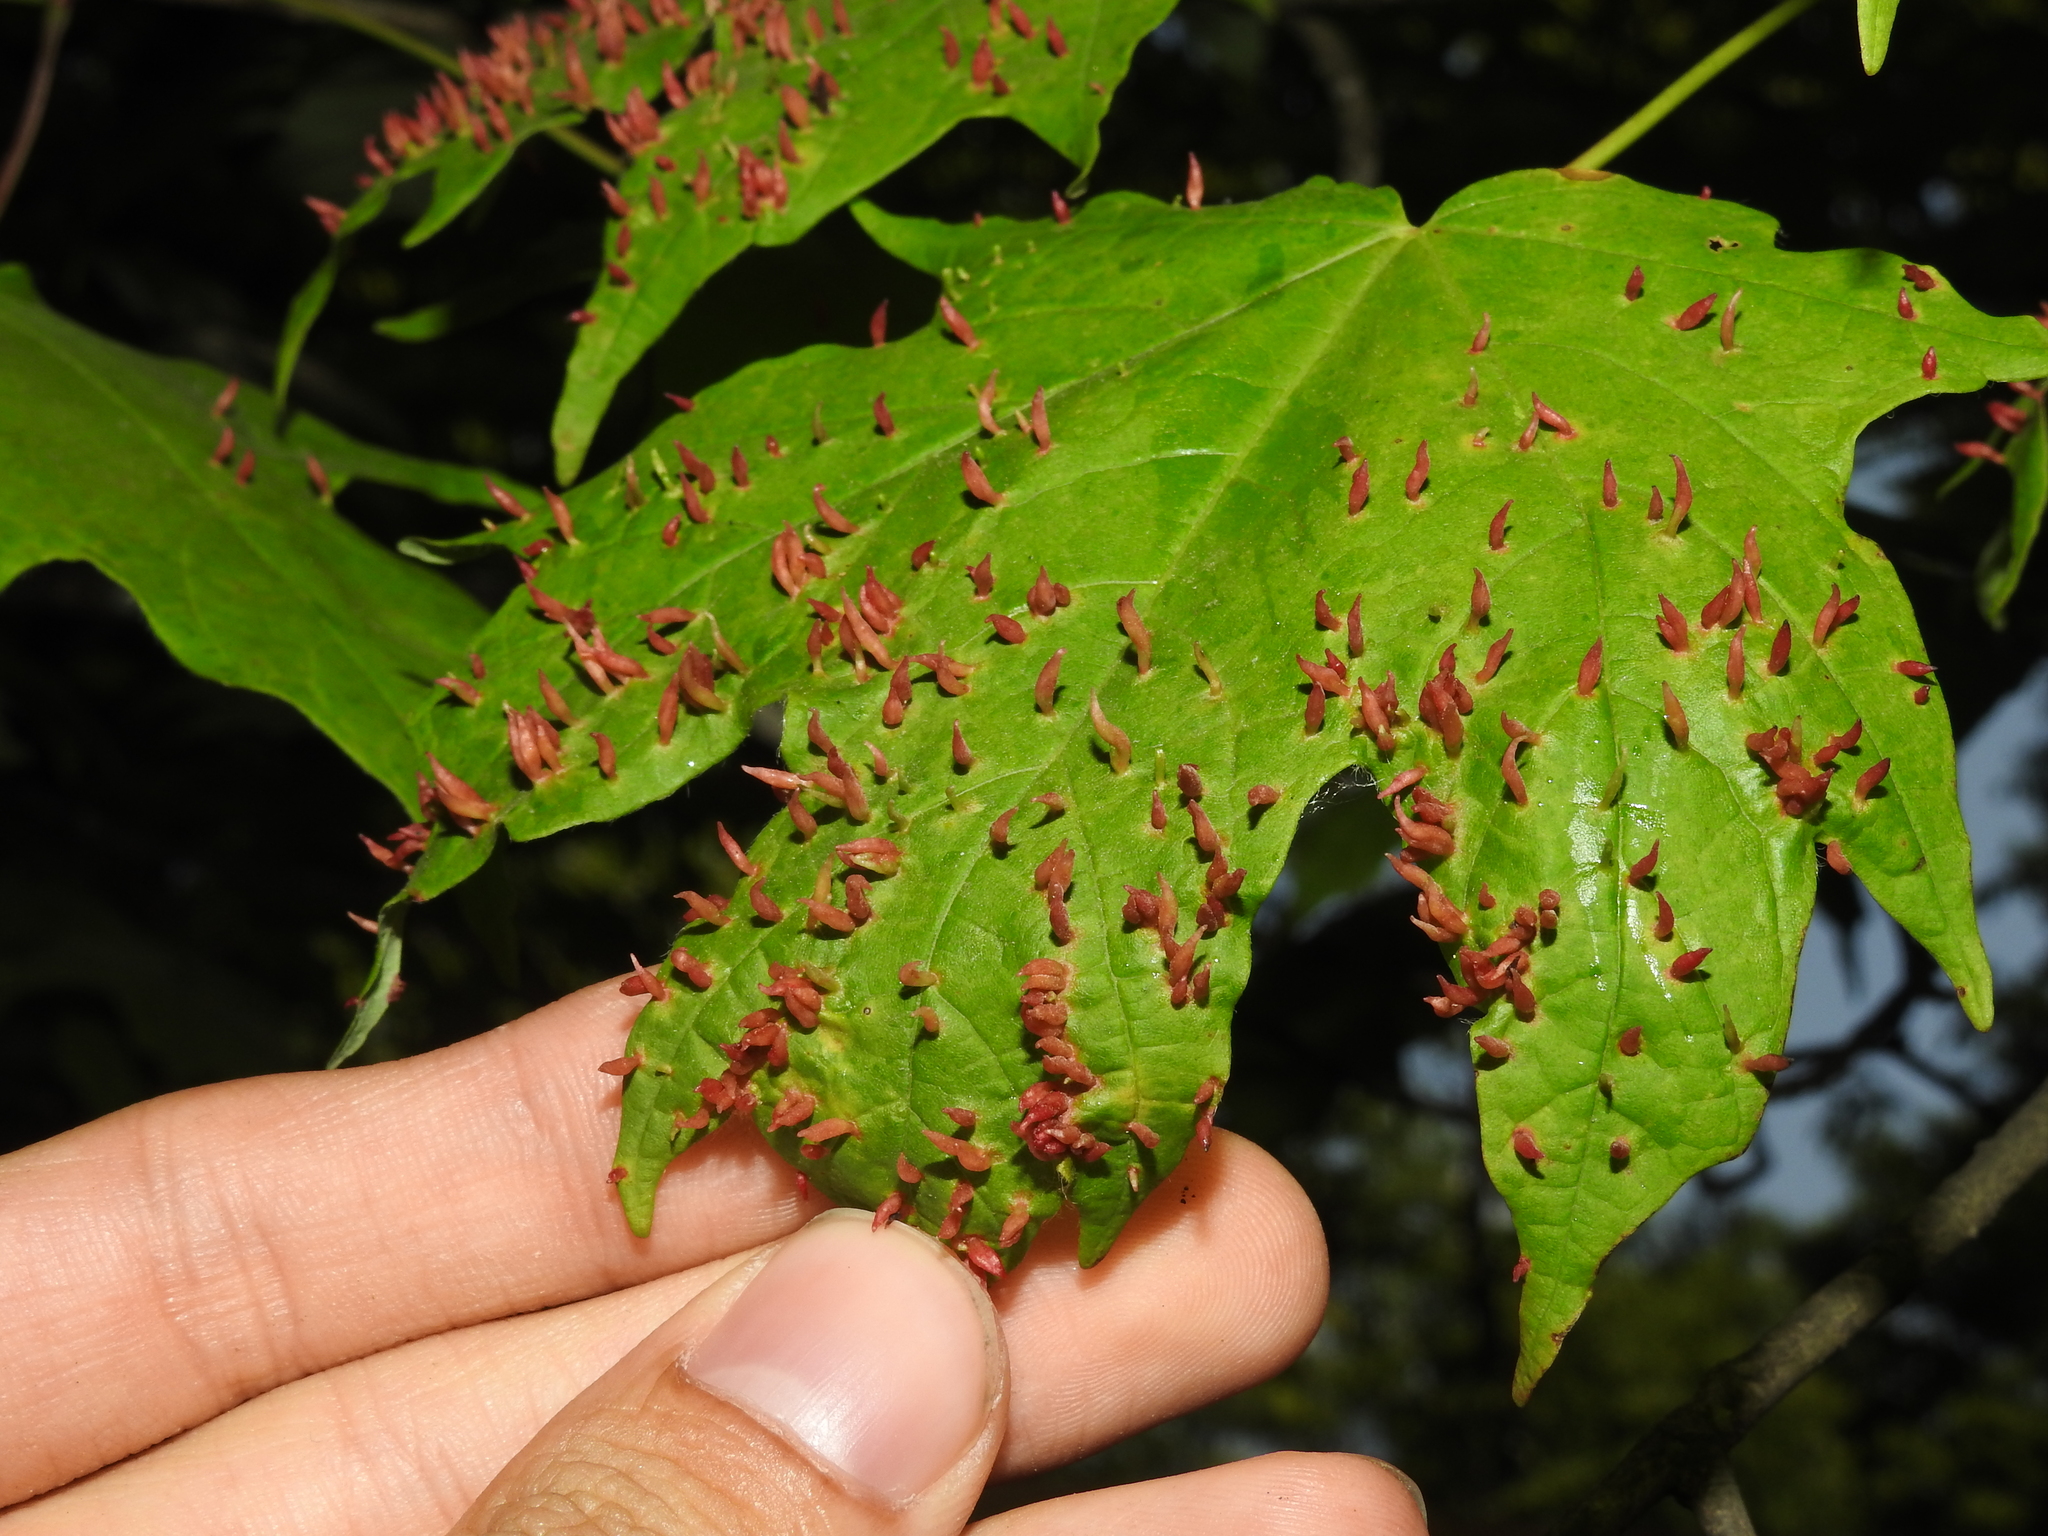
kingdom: Animalia
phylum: Arthropoda
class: Arachnida
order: Trombidiformes
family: Eriophyidae
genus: Vasates
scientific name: Vasates aceriscrumena
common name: Maple spindle gall mite
